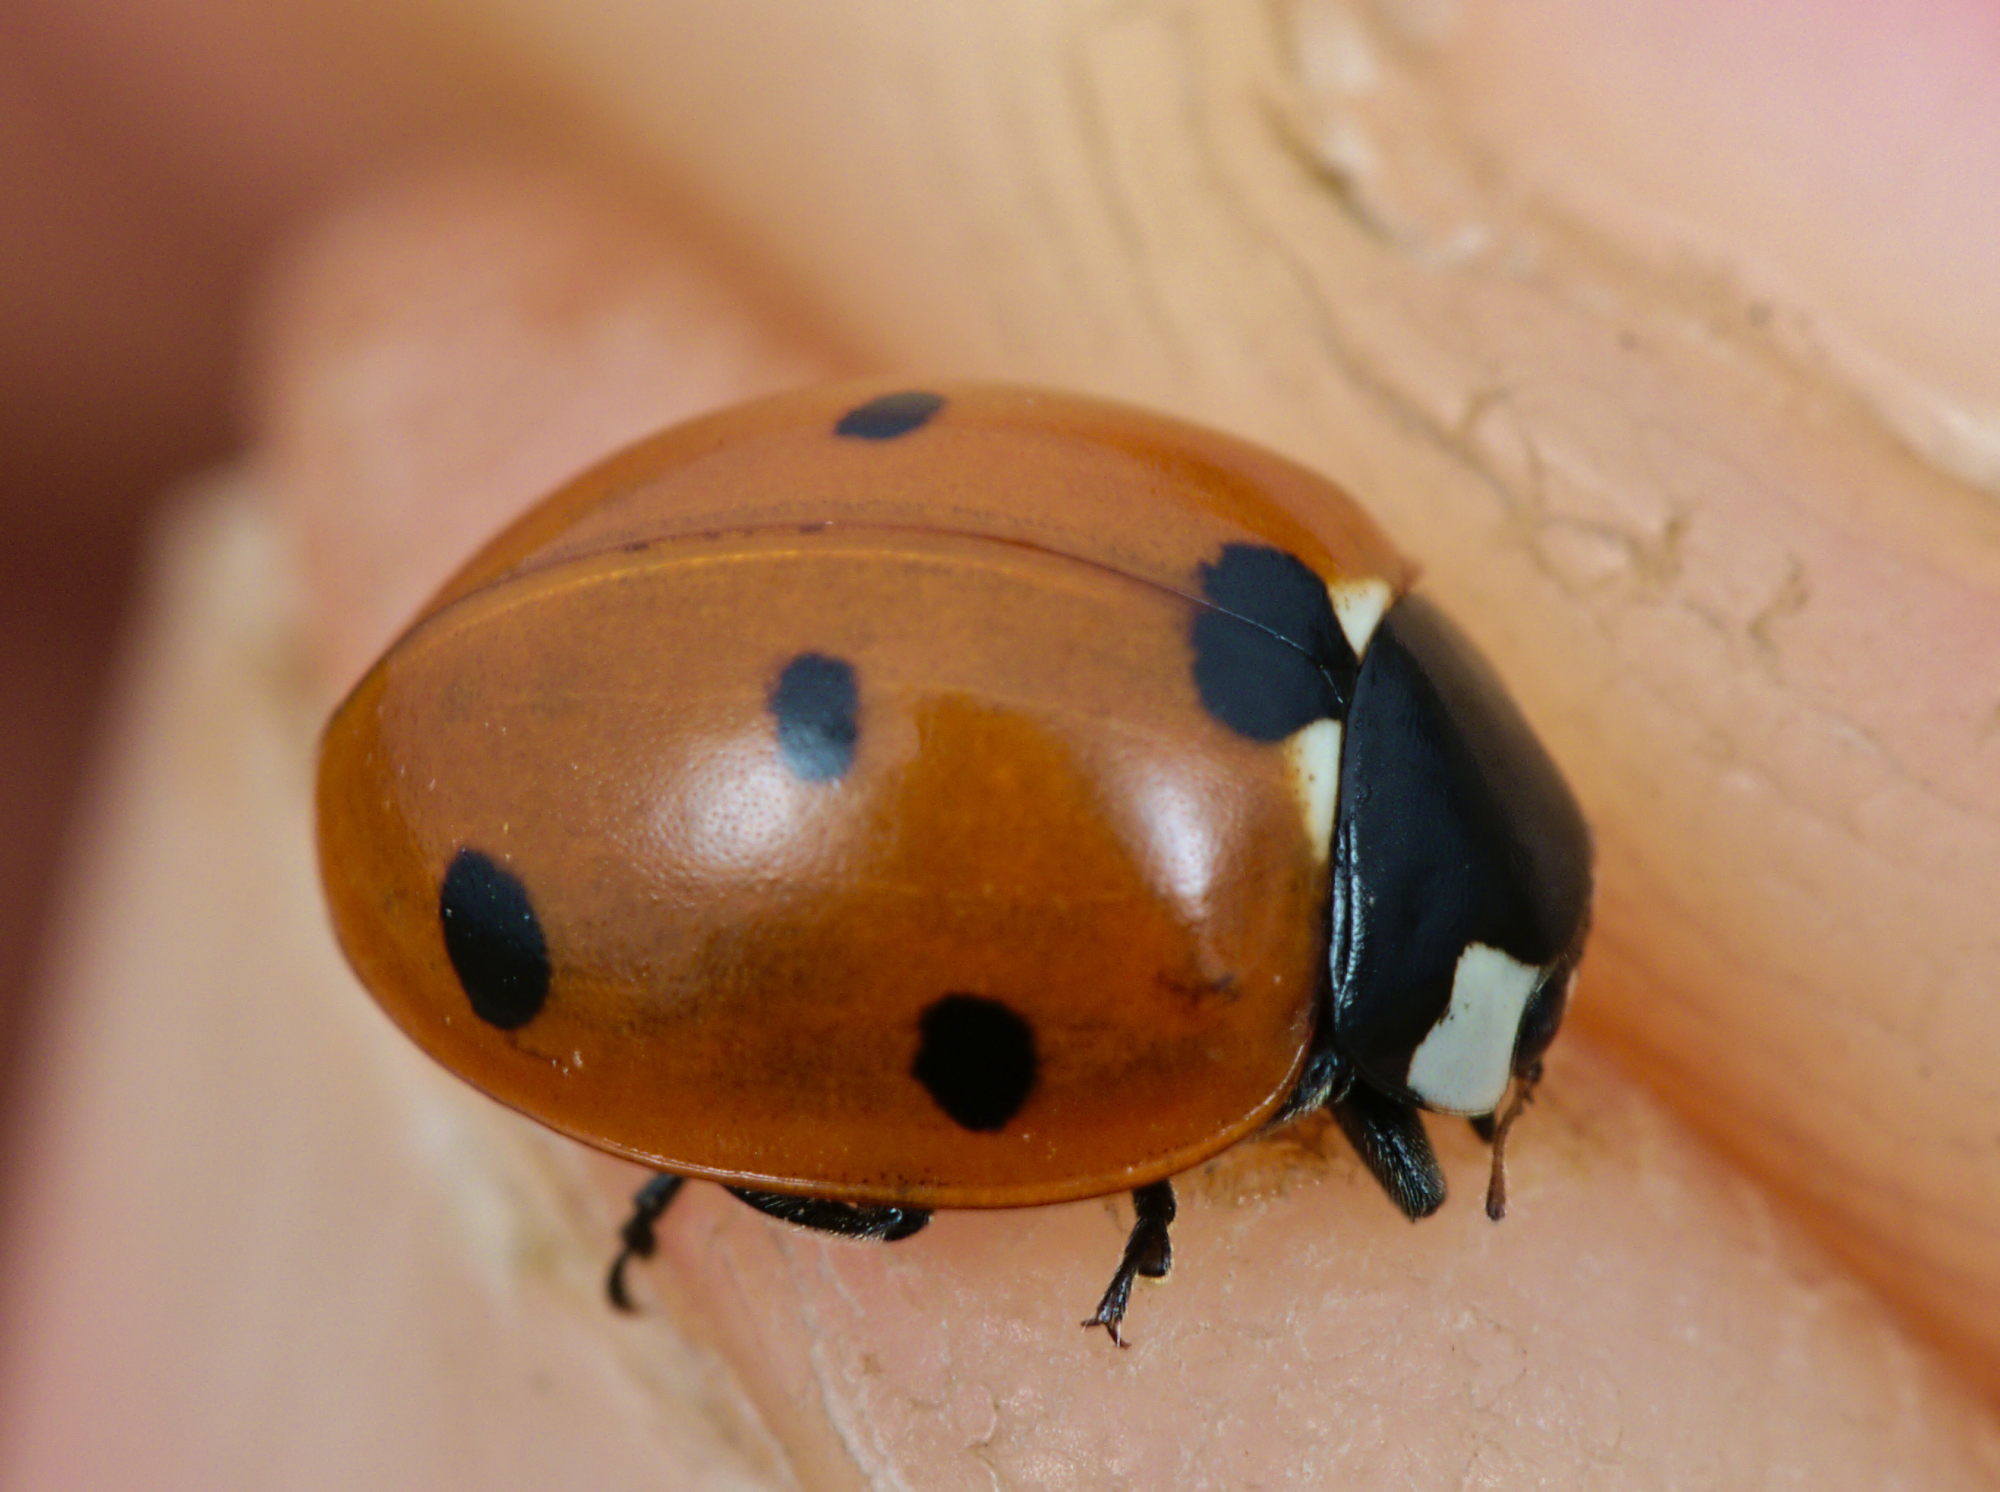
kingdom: Animalia
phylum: Arthropoda
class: Insecta
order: Coleoptera
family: Coccinellidae
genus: Coccinella
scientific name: Coccinella septempunctata
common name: Sevenspotted lady beetle
